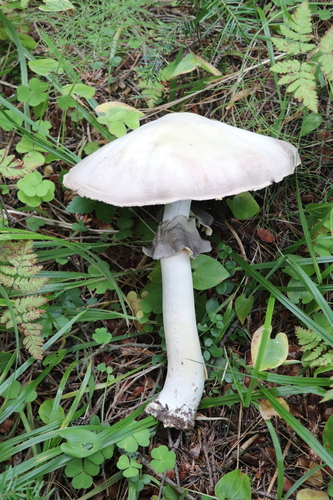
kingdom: Fungi
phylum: Basidiomycota
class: Agaricomycetes
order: Agaricales
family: Agaricaceae
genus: Agaricus
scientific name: Agaricus sylvicola
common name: Wood mushroom
